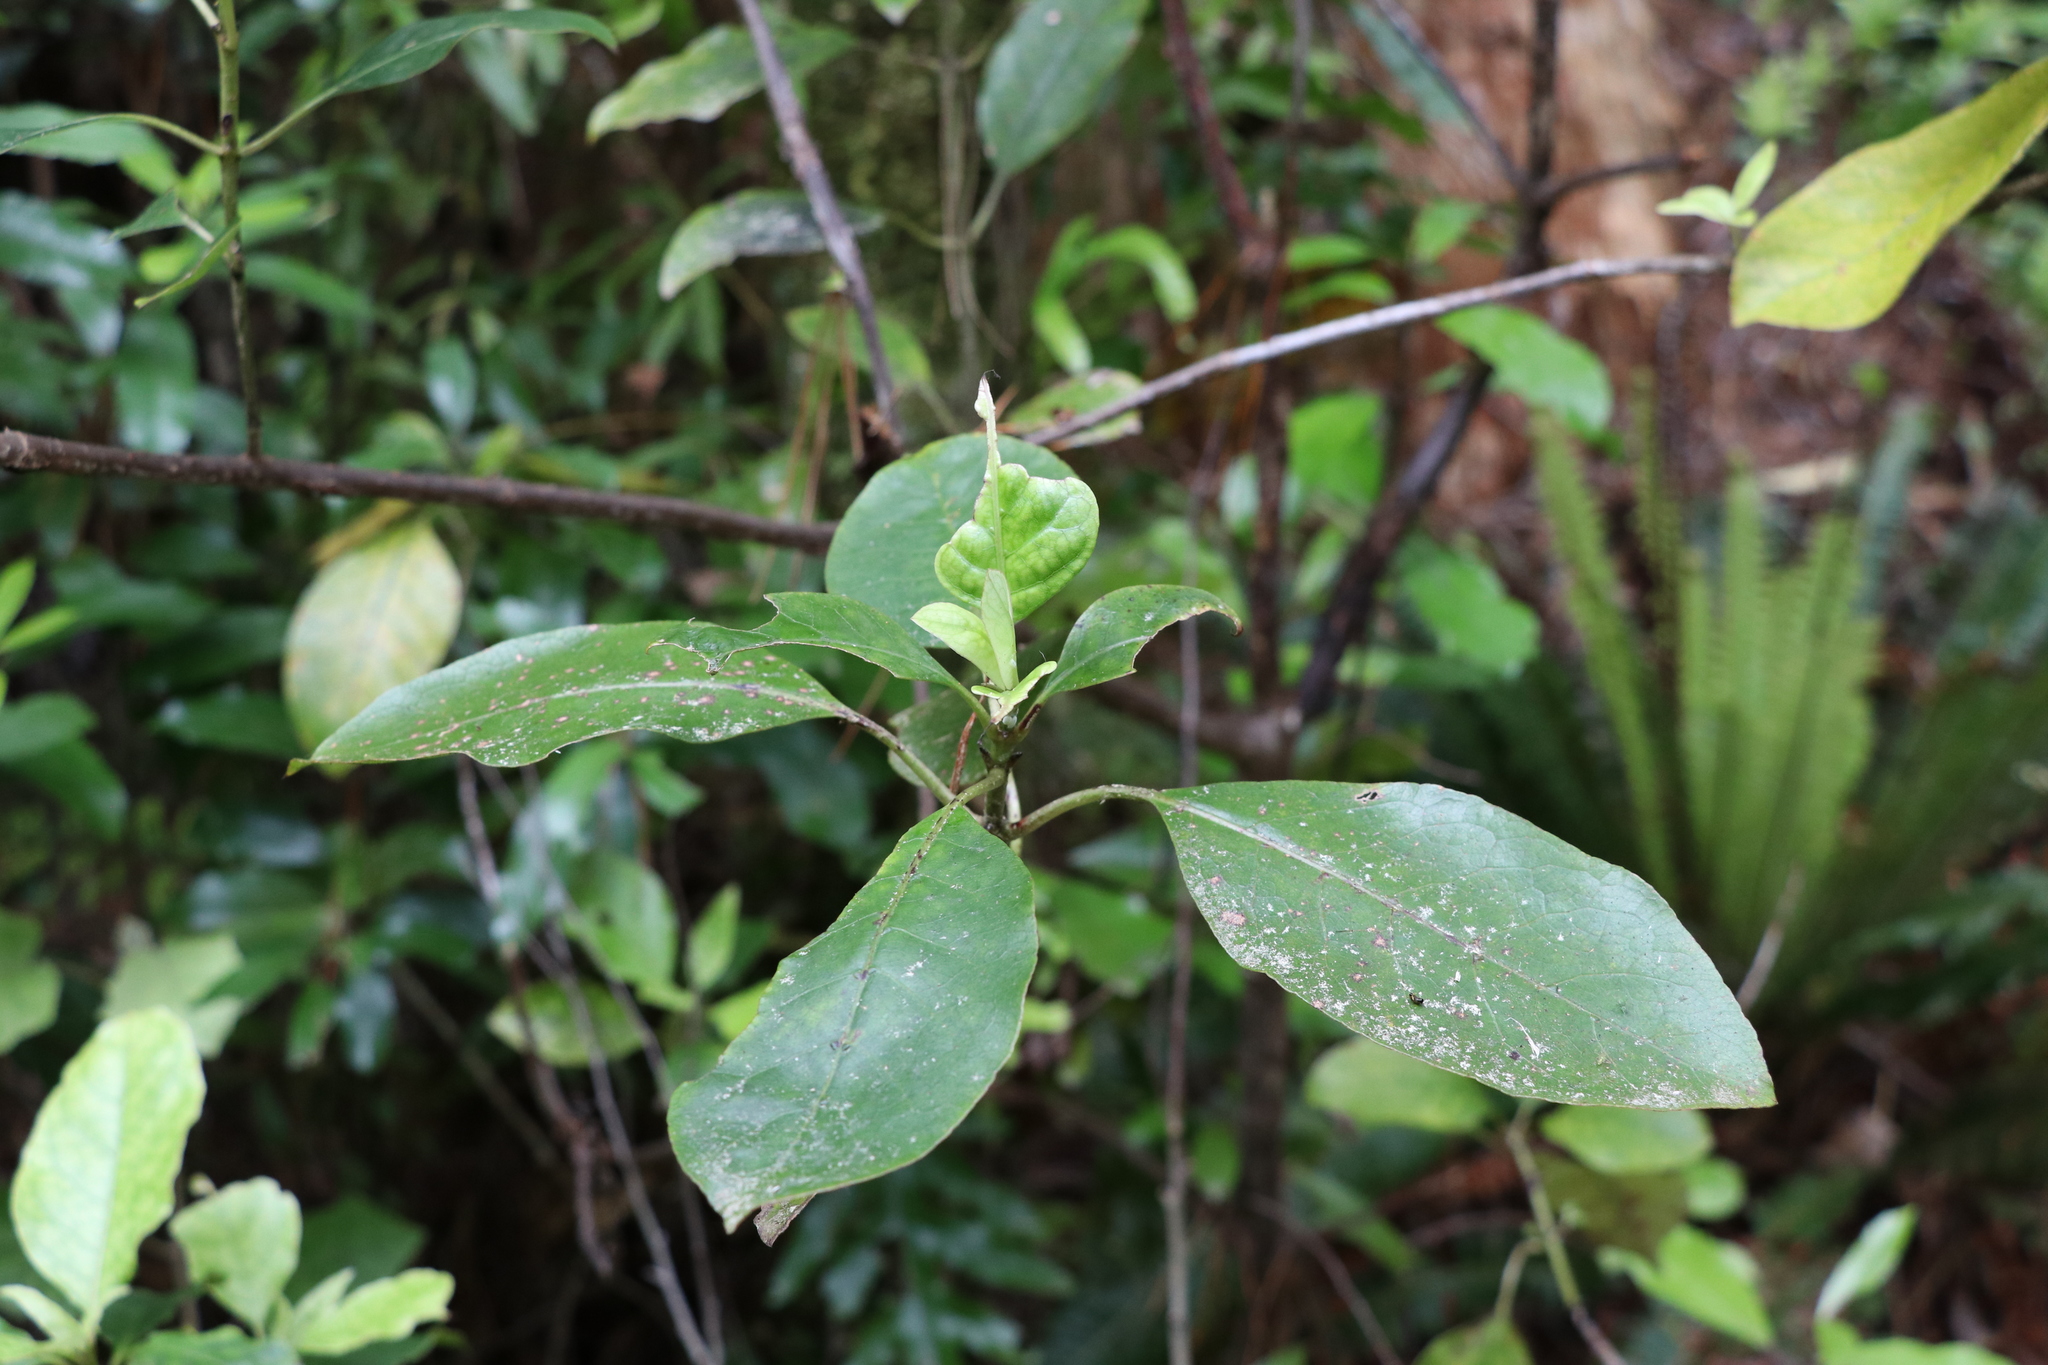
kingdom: Plantae
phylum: Tracheophyta
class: Magnoliopsida
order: Gentianales
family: Rubiaceae
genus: Coprosma
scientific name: Coprosma autumnalis
